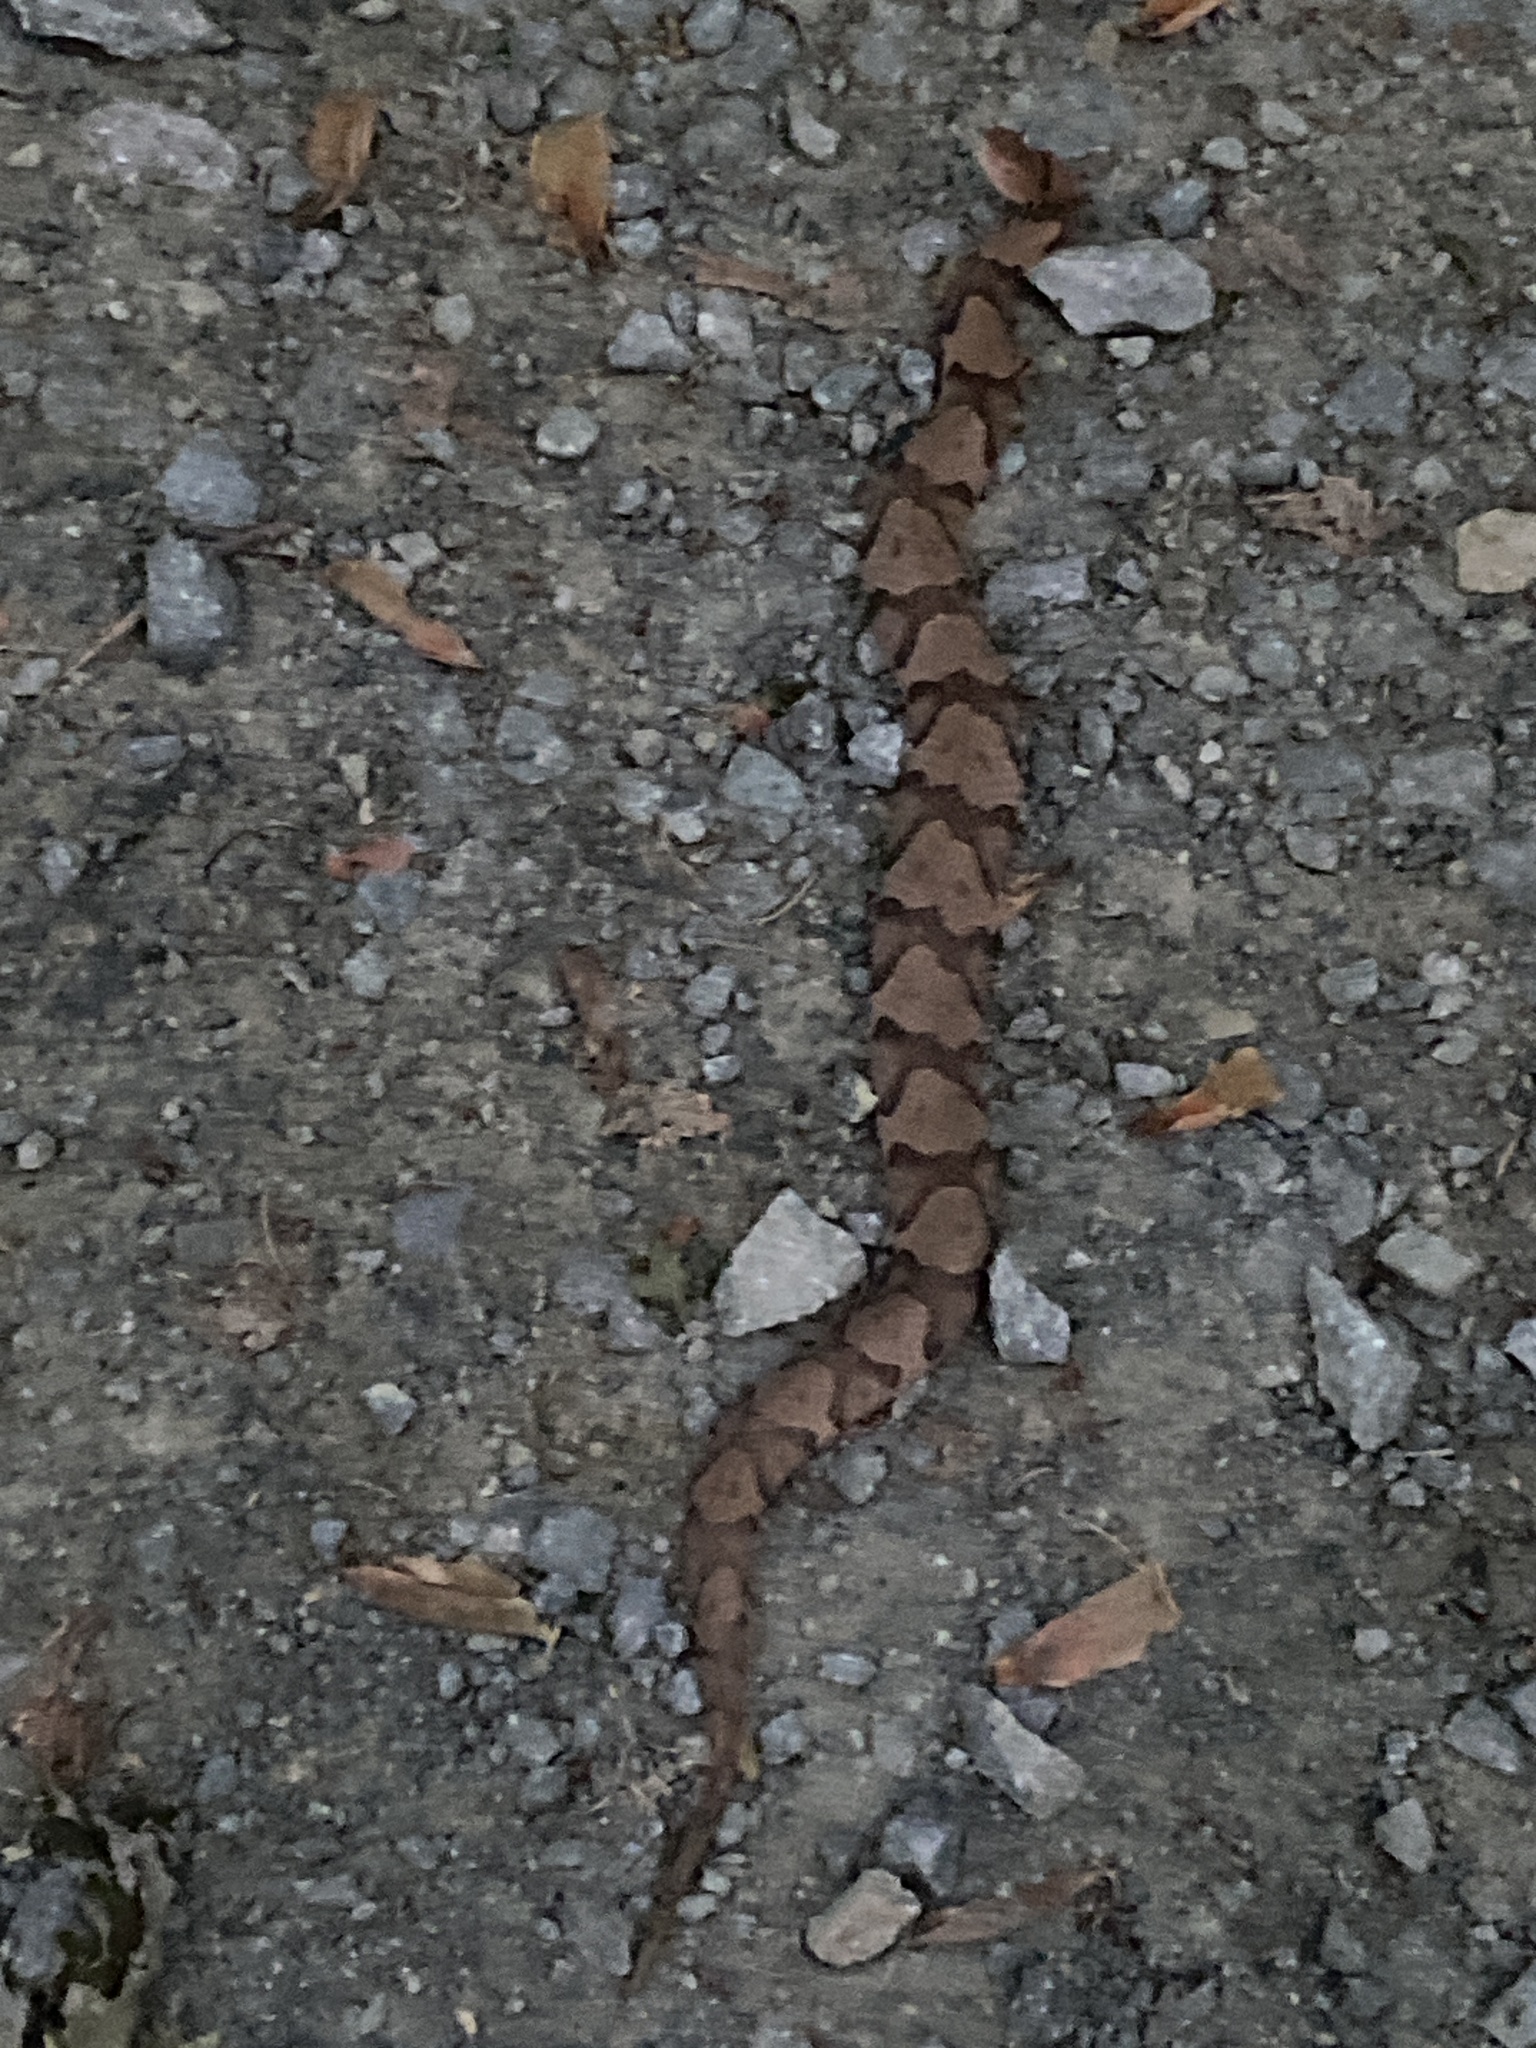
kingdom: Animalia
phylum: Chordata
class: Squamata
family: Viperidae
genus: Agkistrodon
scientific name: Agkistrodon contortrix
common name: Northern copperhead
